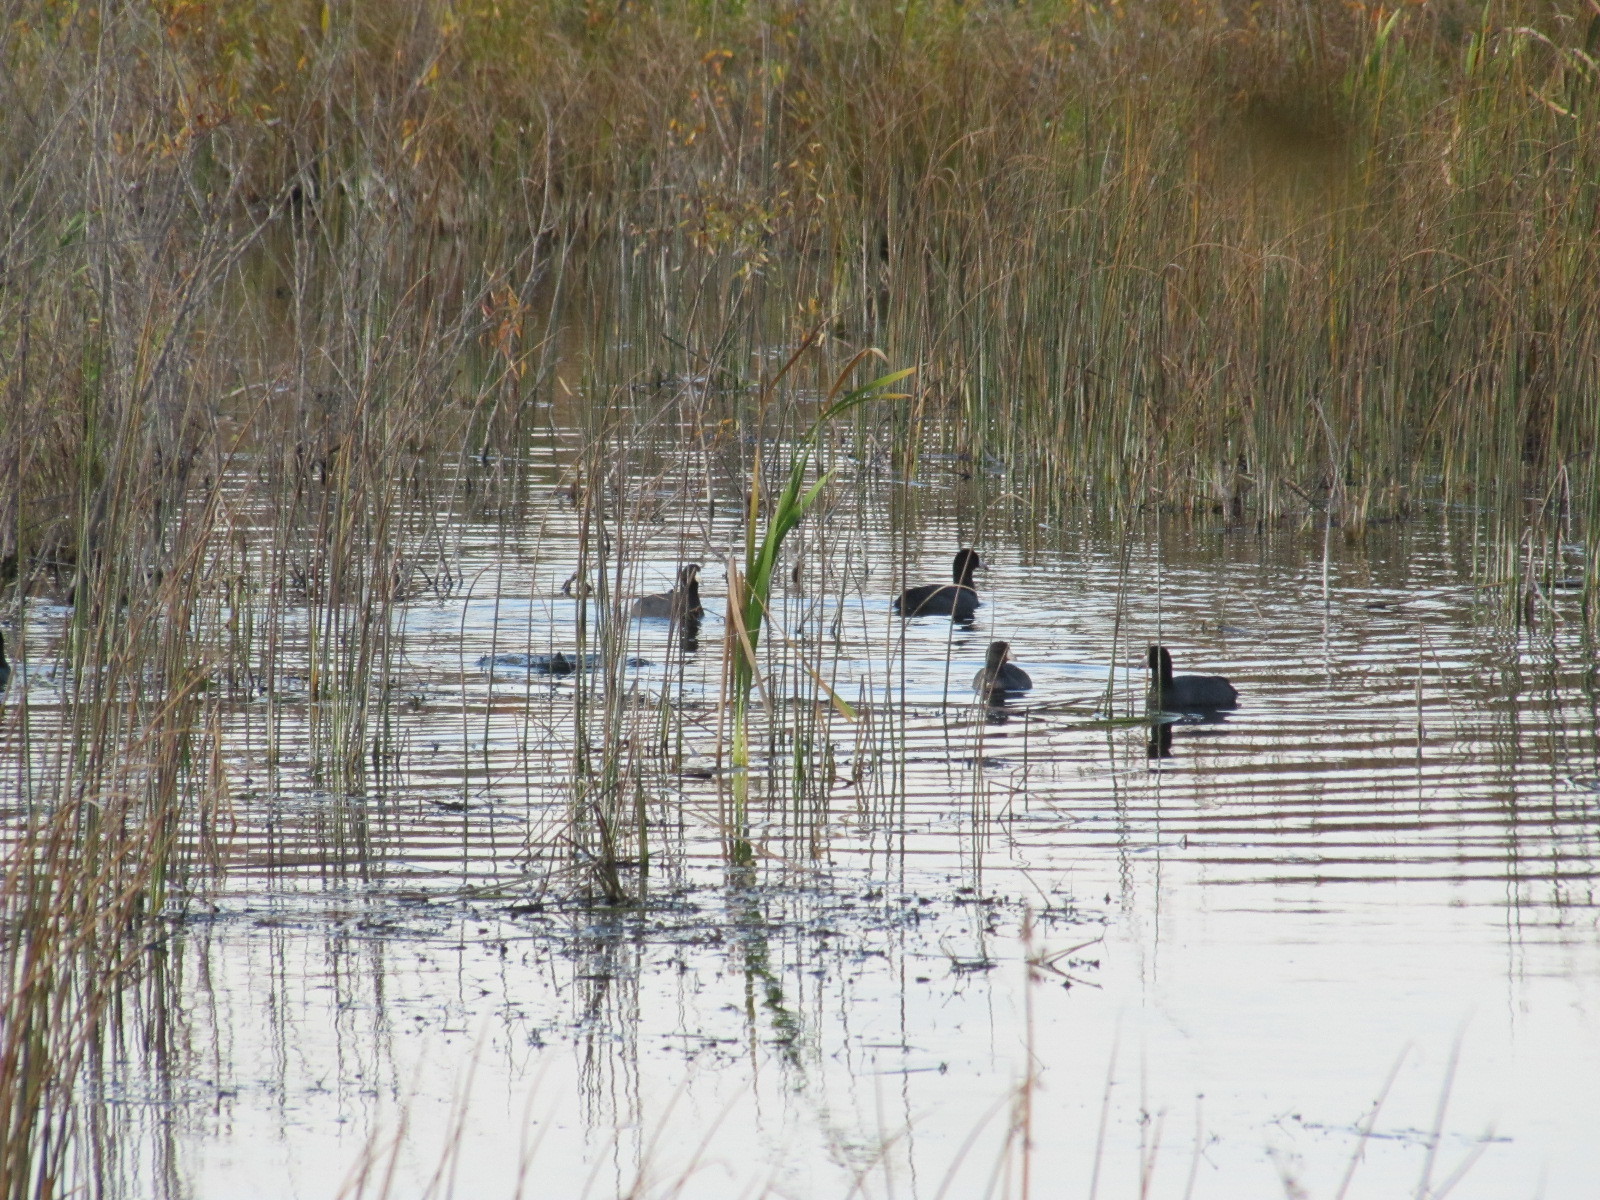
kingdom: Animalia
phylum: Chordata
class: Aves
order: Gruiformes
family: Rallidae
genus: Fulica
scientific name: Fulica americana
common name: American coot
